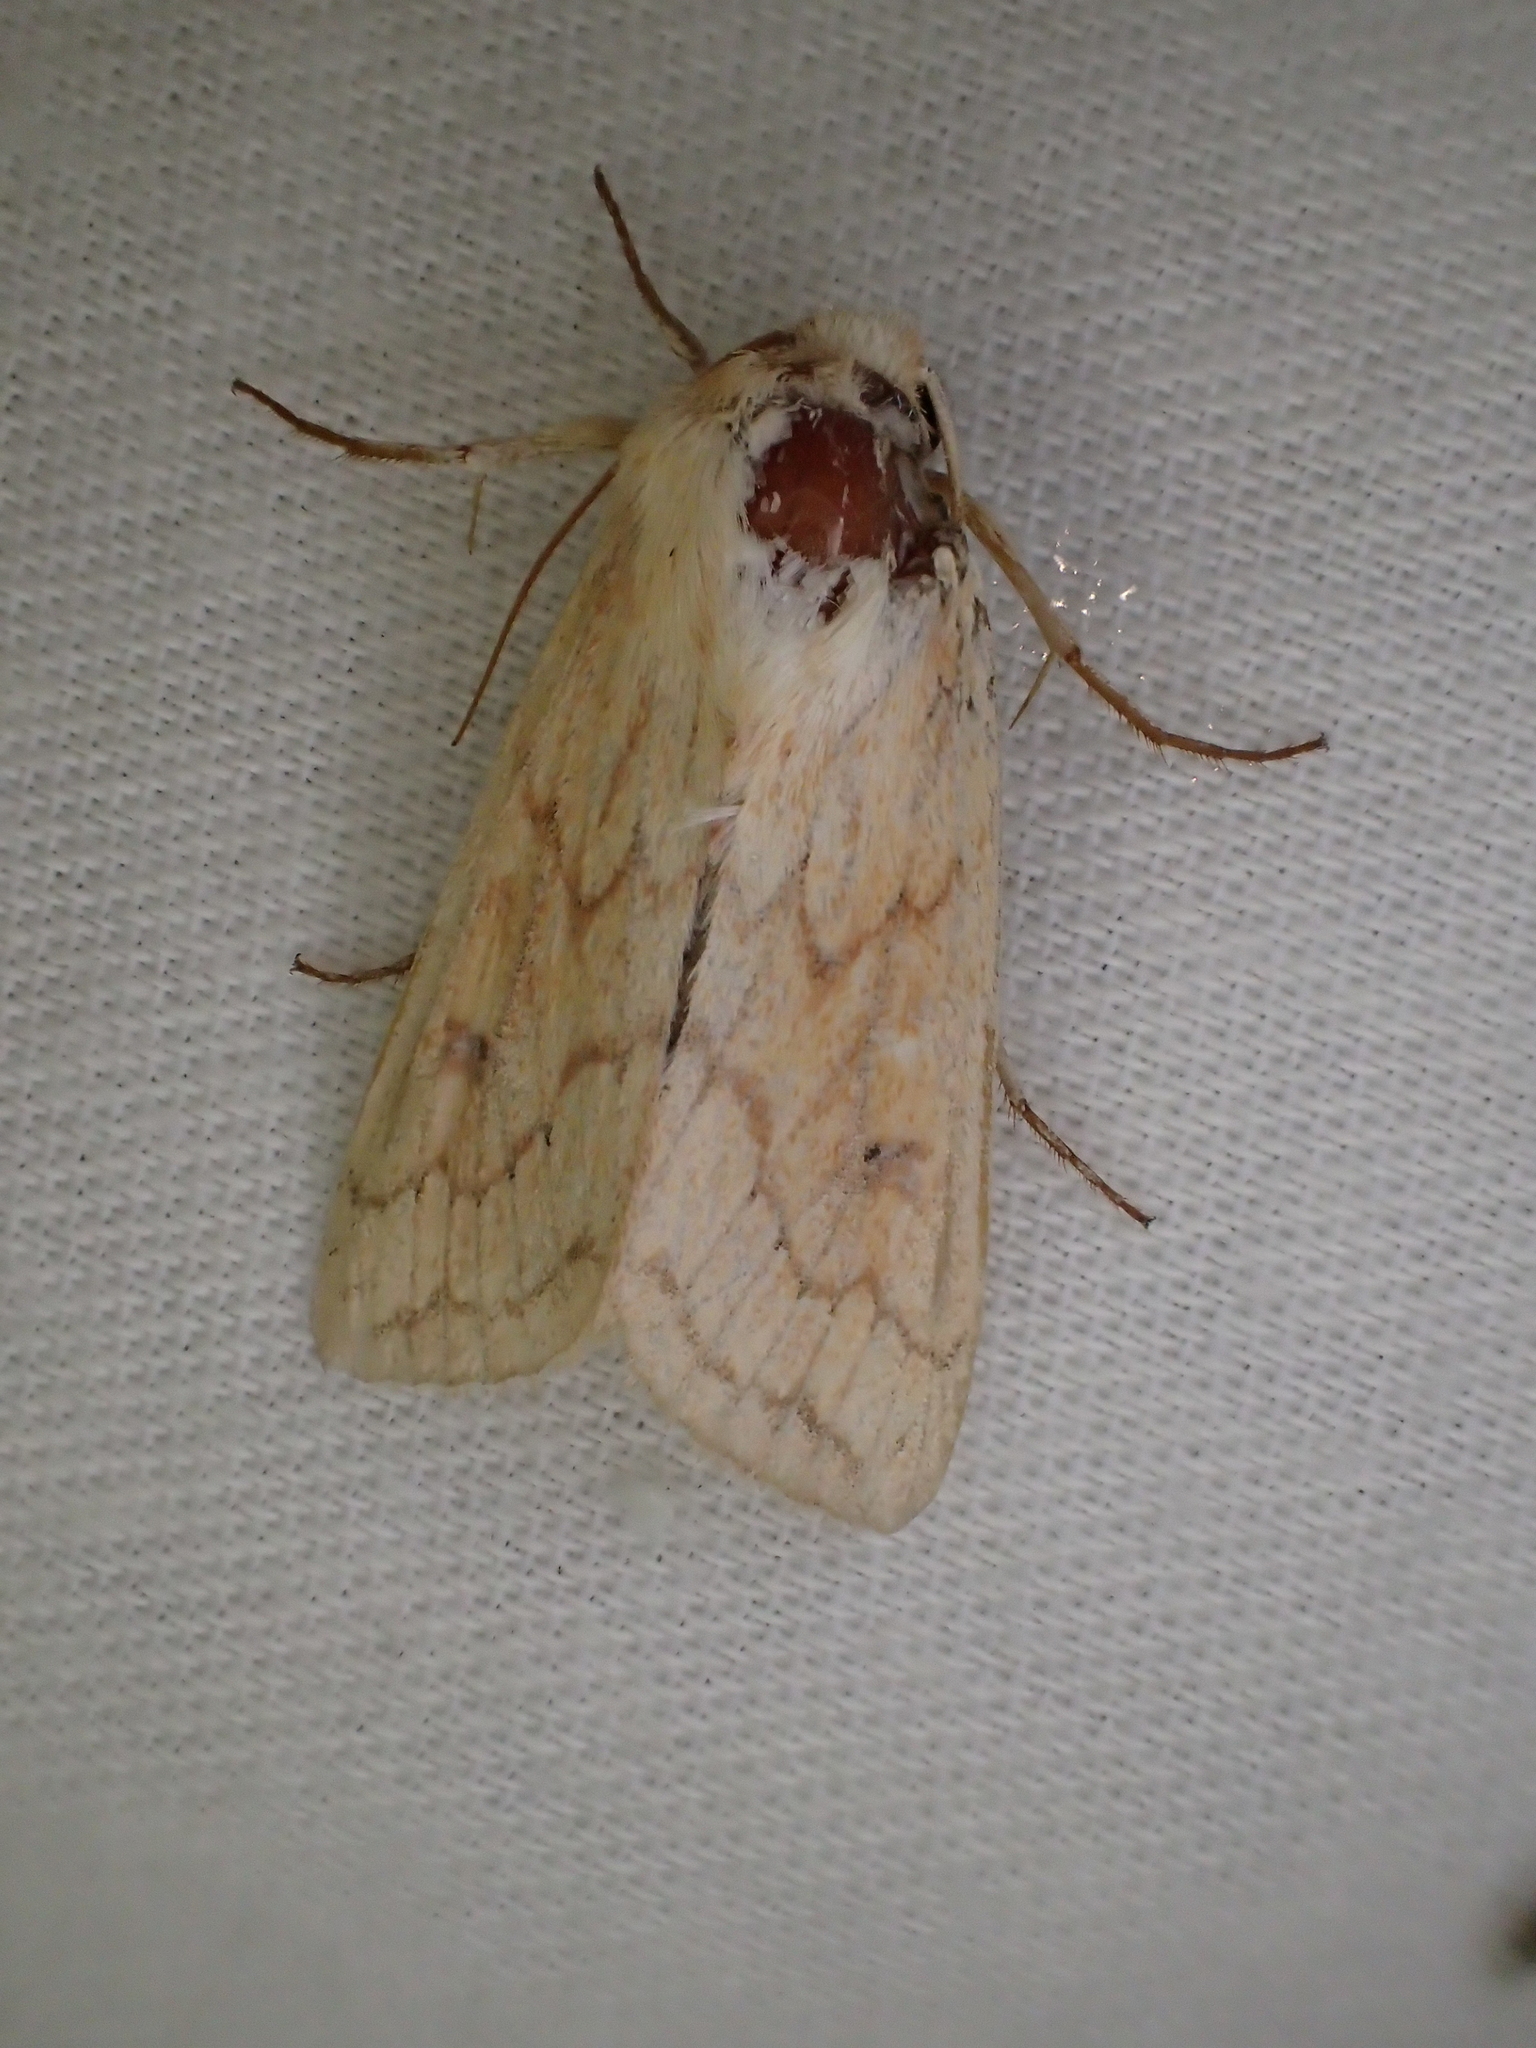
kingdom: Animalia
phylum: Arthropoda
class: Insecta
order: Lepidoptera
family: Noctuidae
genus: Mythimna
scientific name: Mythimna vitellina
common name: Delicate
